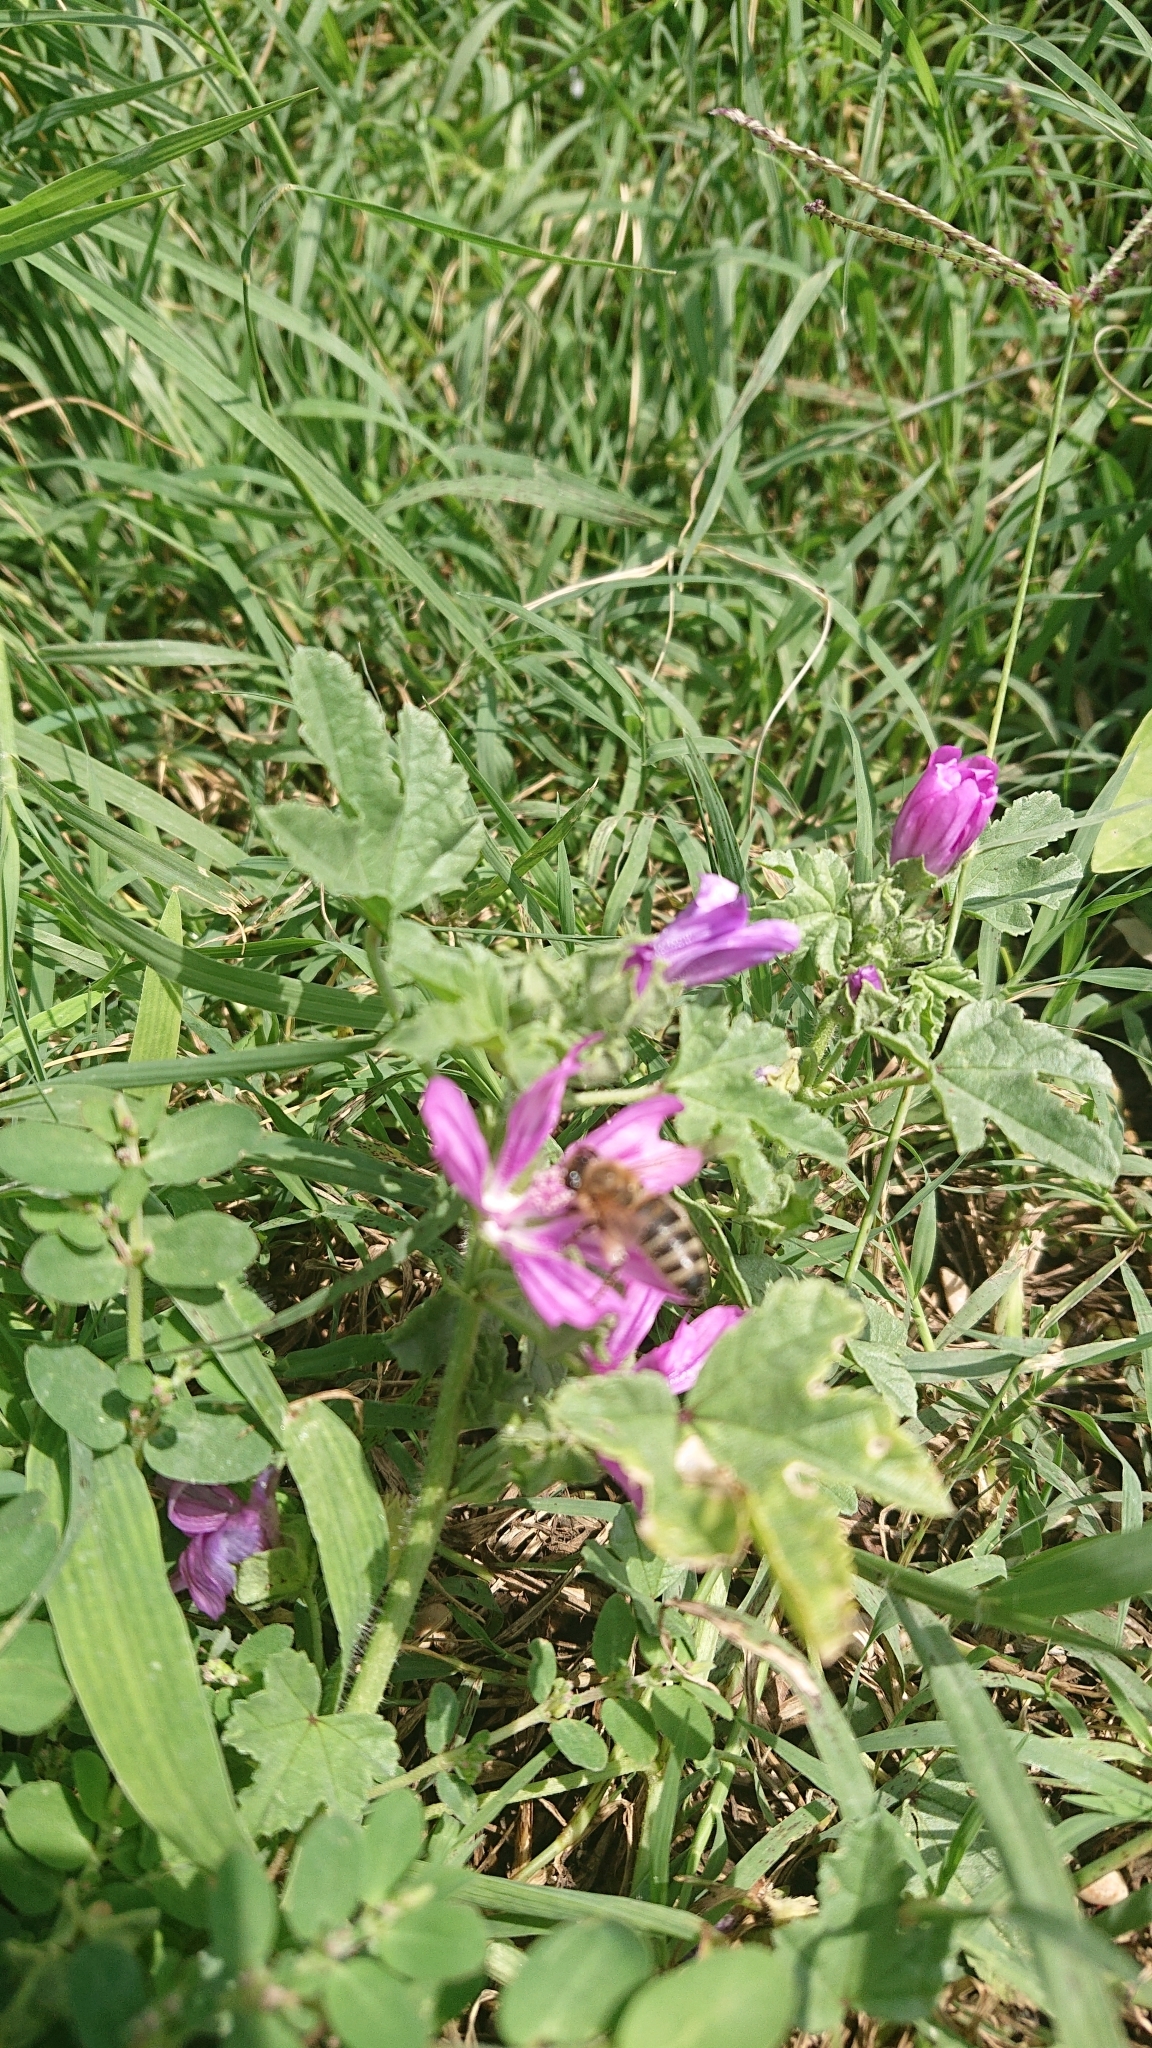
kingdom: Animalia
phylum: Arthropoda
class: Insecta
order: Hymenoptera
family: Apidae
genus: Apis
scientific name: Apis mellifera
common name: Honey bee
